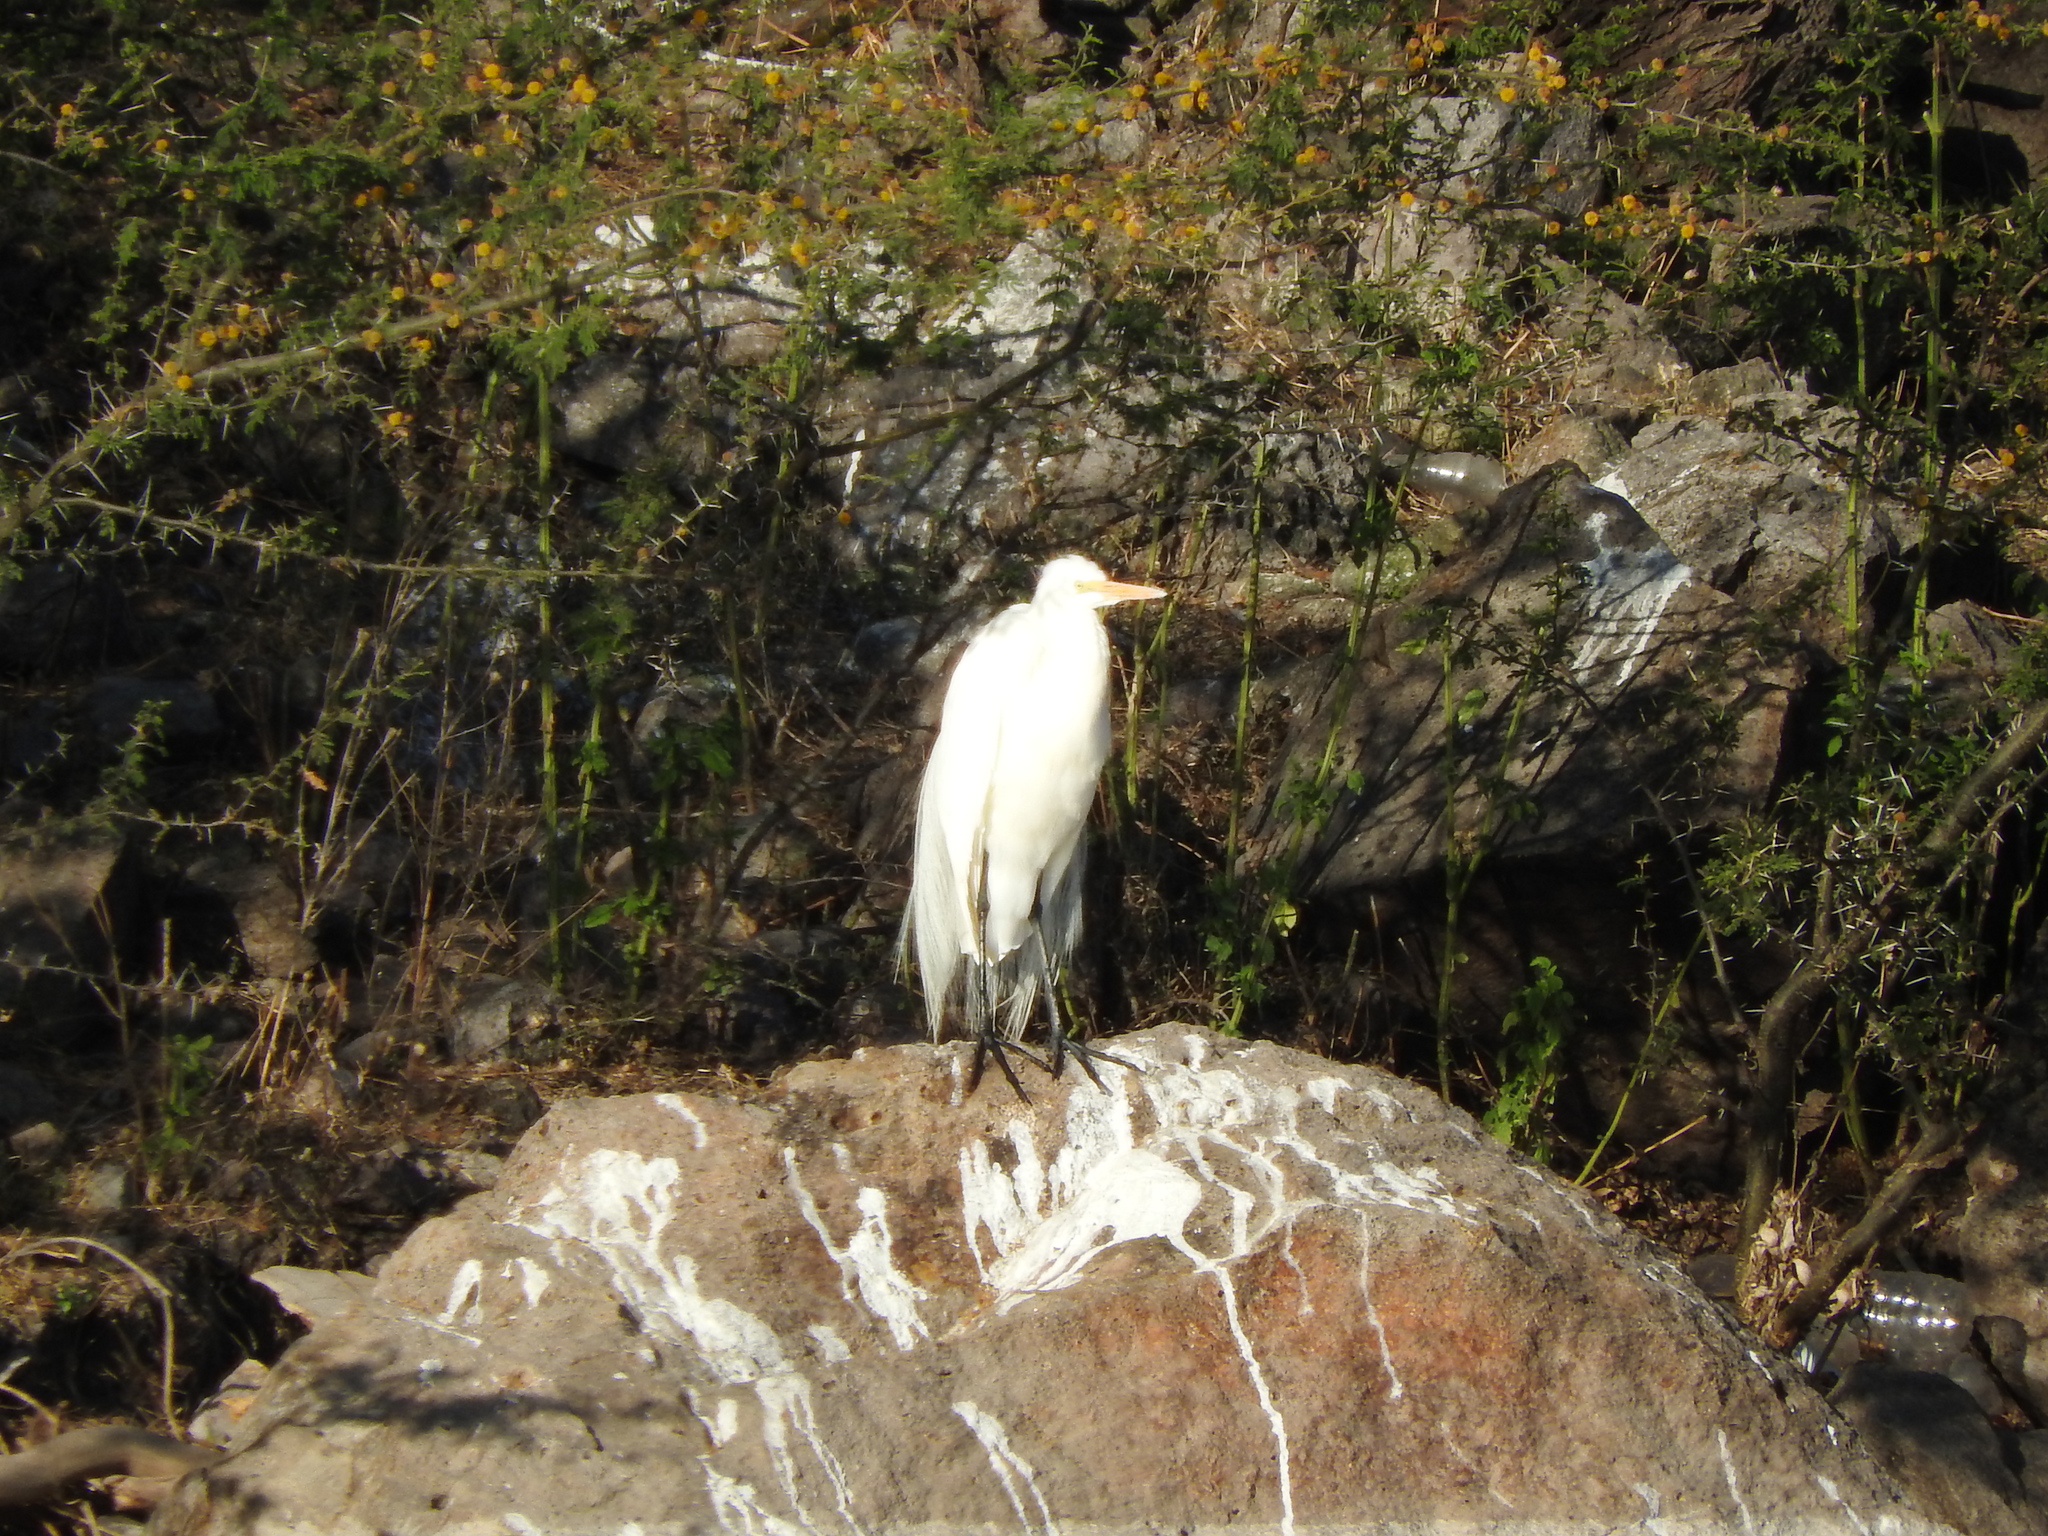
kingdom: Animalia
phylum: Chordata
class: Aves
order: Pelecaniformes
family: Ardeidae
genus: Ardea
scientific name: Ardea alba
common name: Great egret
